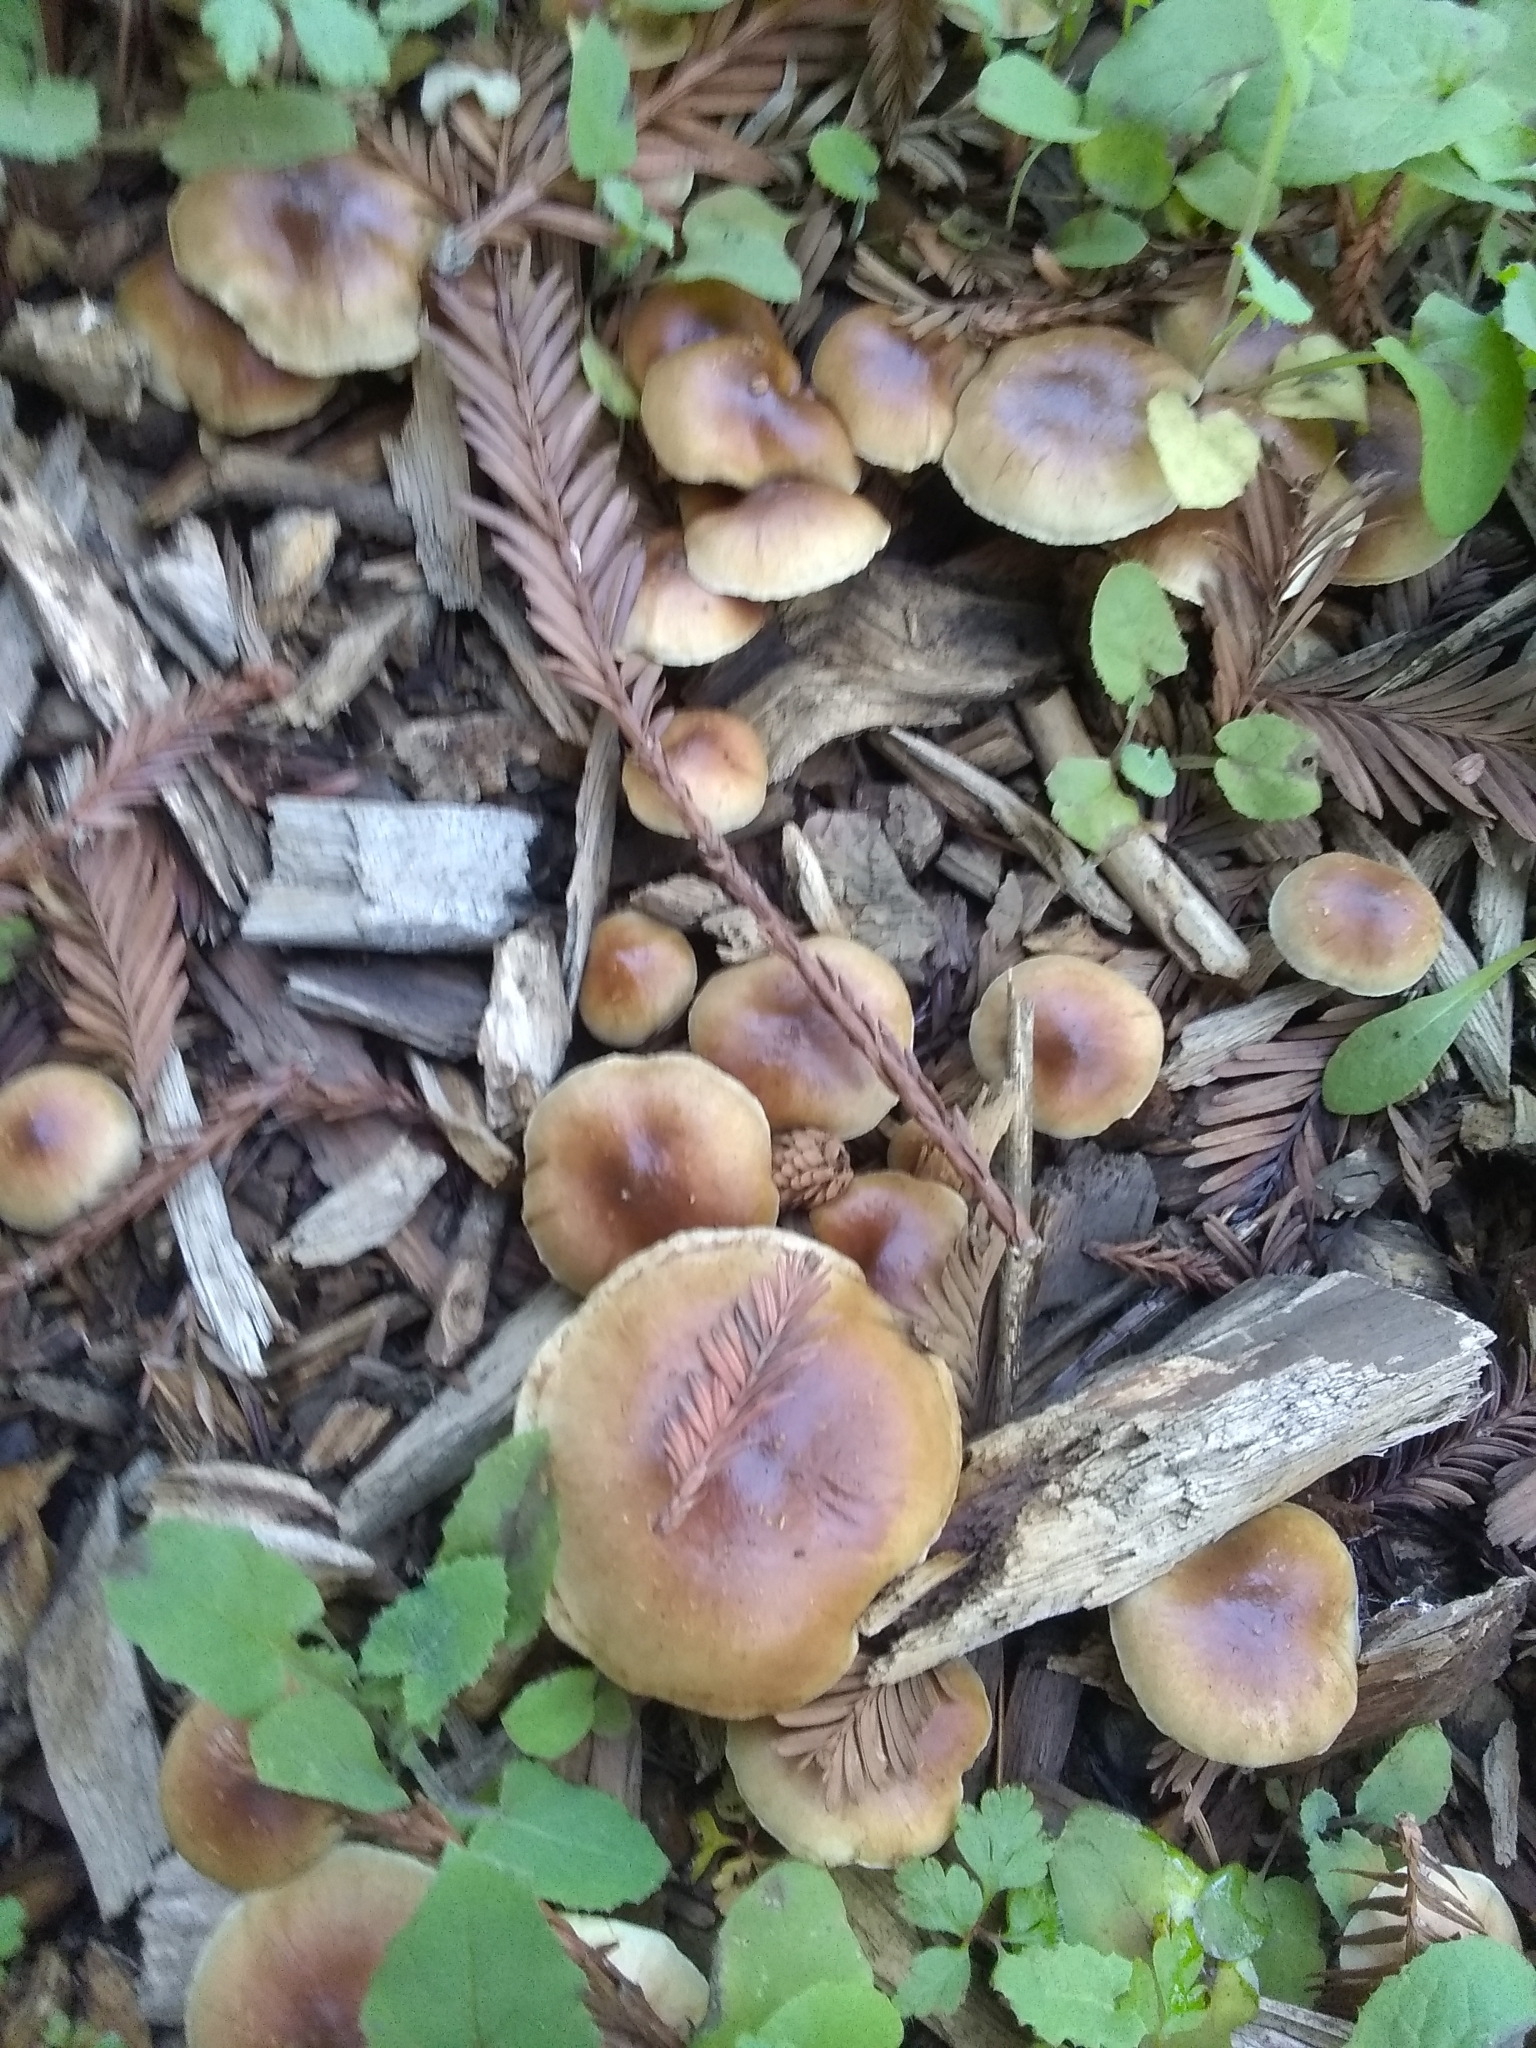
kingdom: Fungi
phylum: Basidiomycota
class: Agaricomycetes
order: Agaricales
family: Strophariaceae
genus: Pholiota
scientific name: Pholiota spumosa
